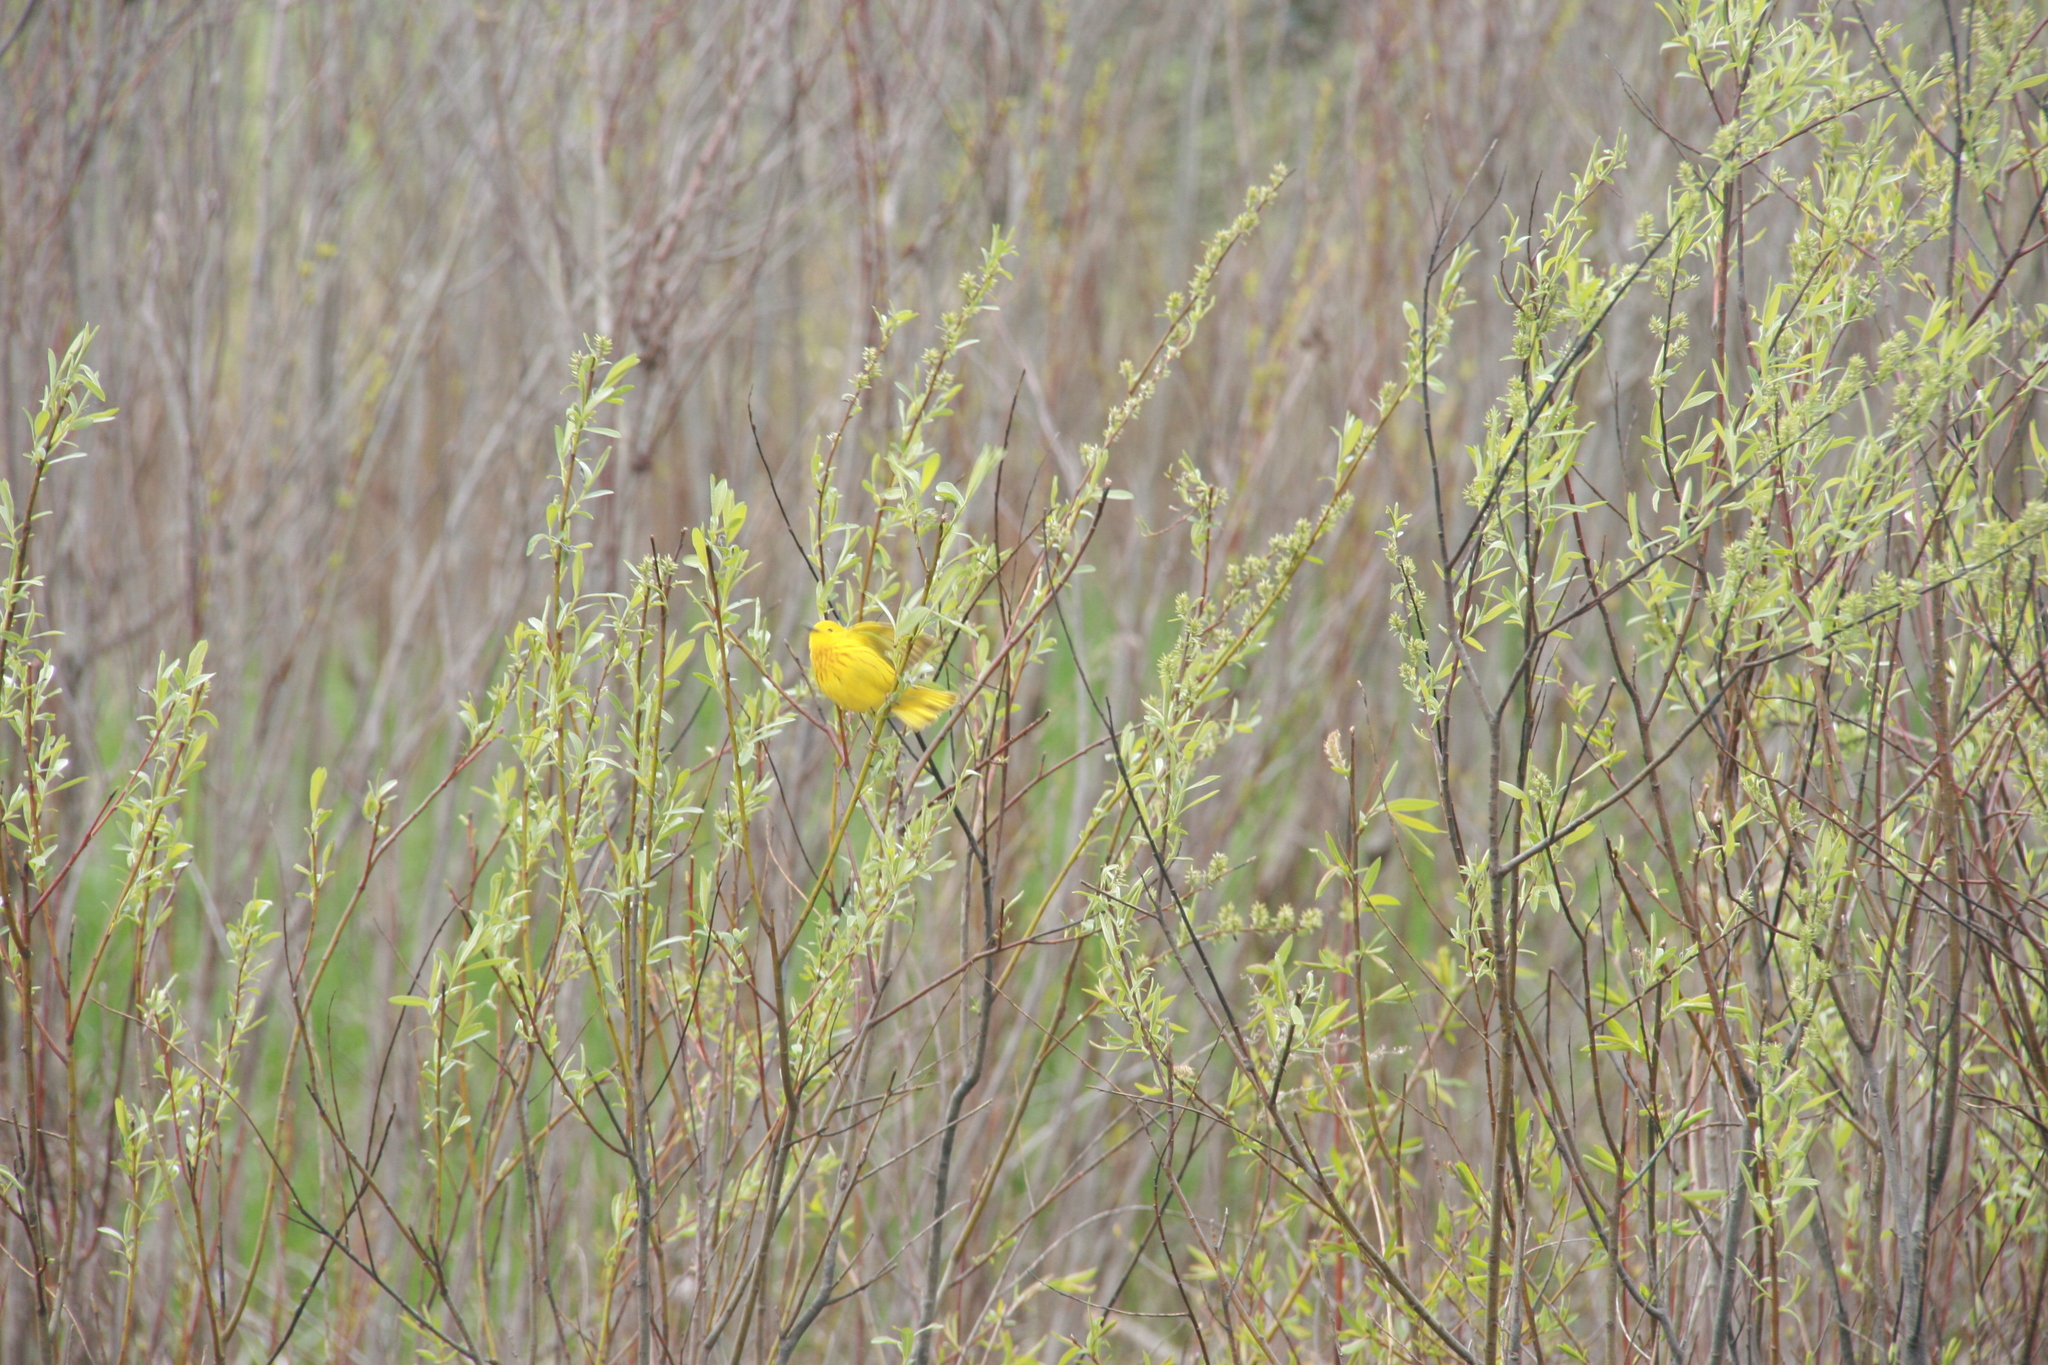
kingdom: Animalia
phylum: Chordata
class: Aves
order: Passeriformes
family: Parulidae
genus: Setophaga
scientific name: Setophaga petechia
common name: Yellow warbler
